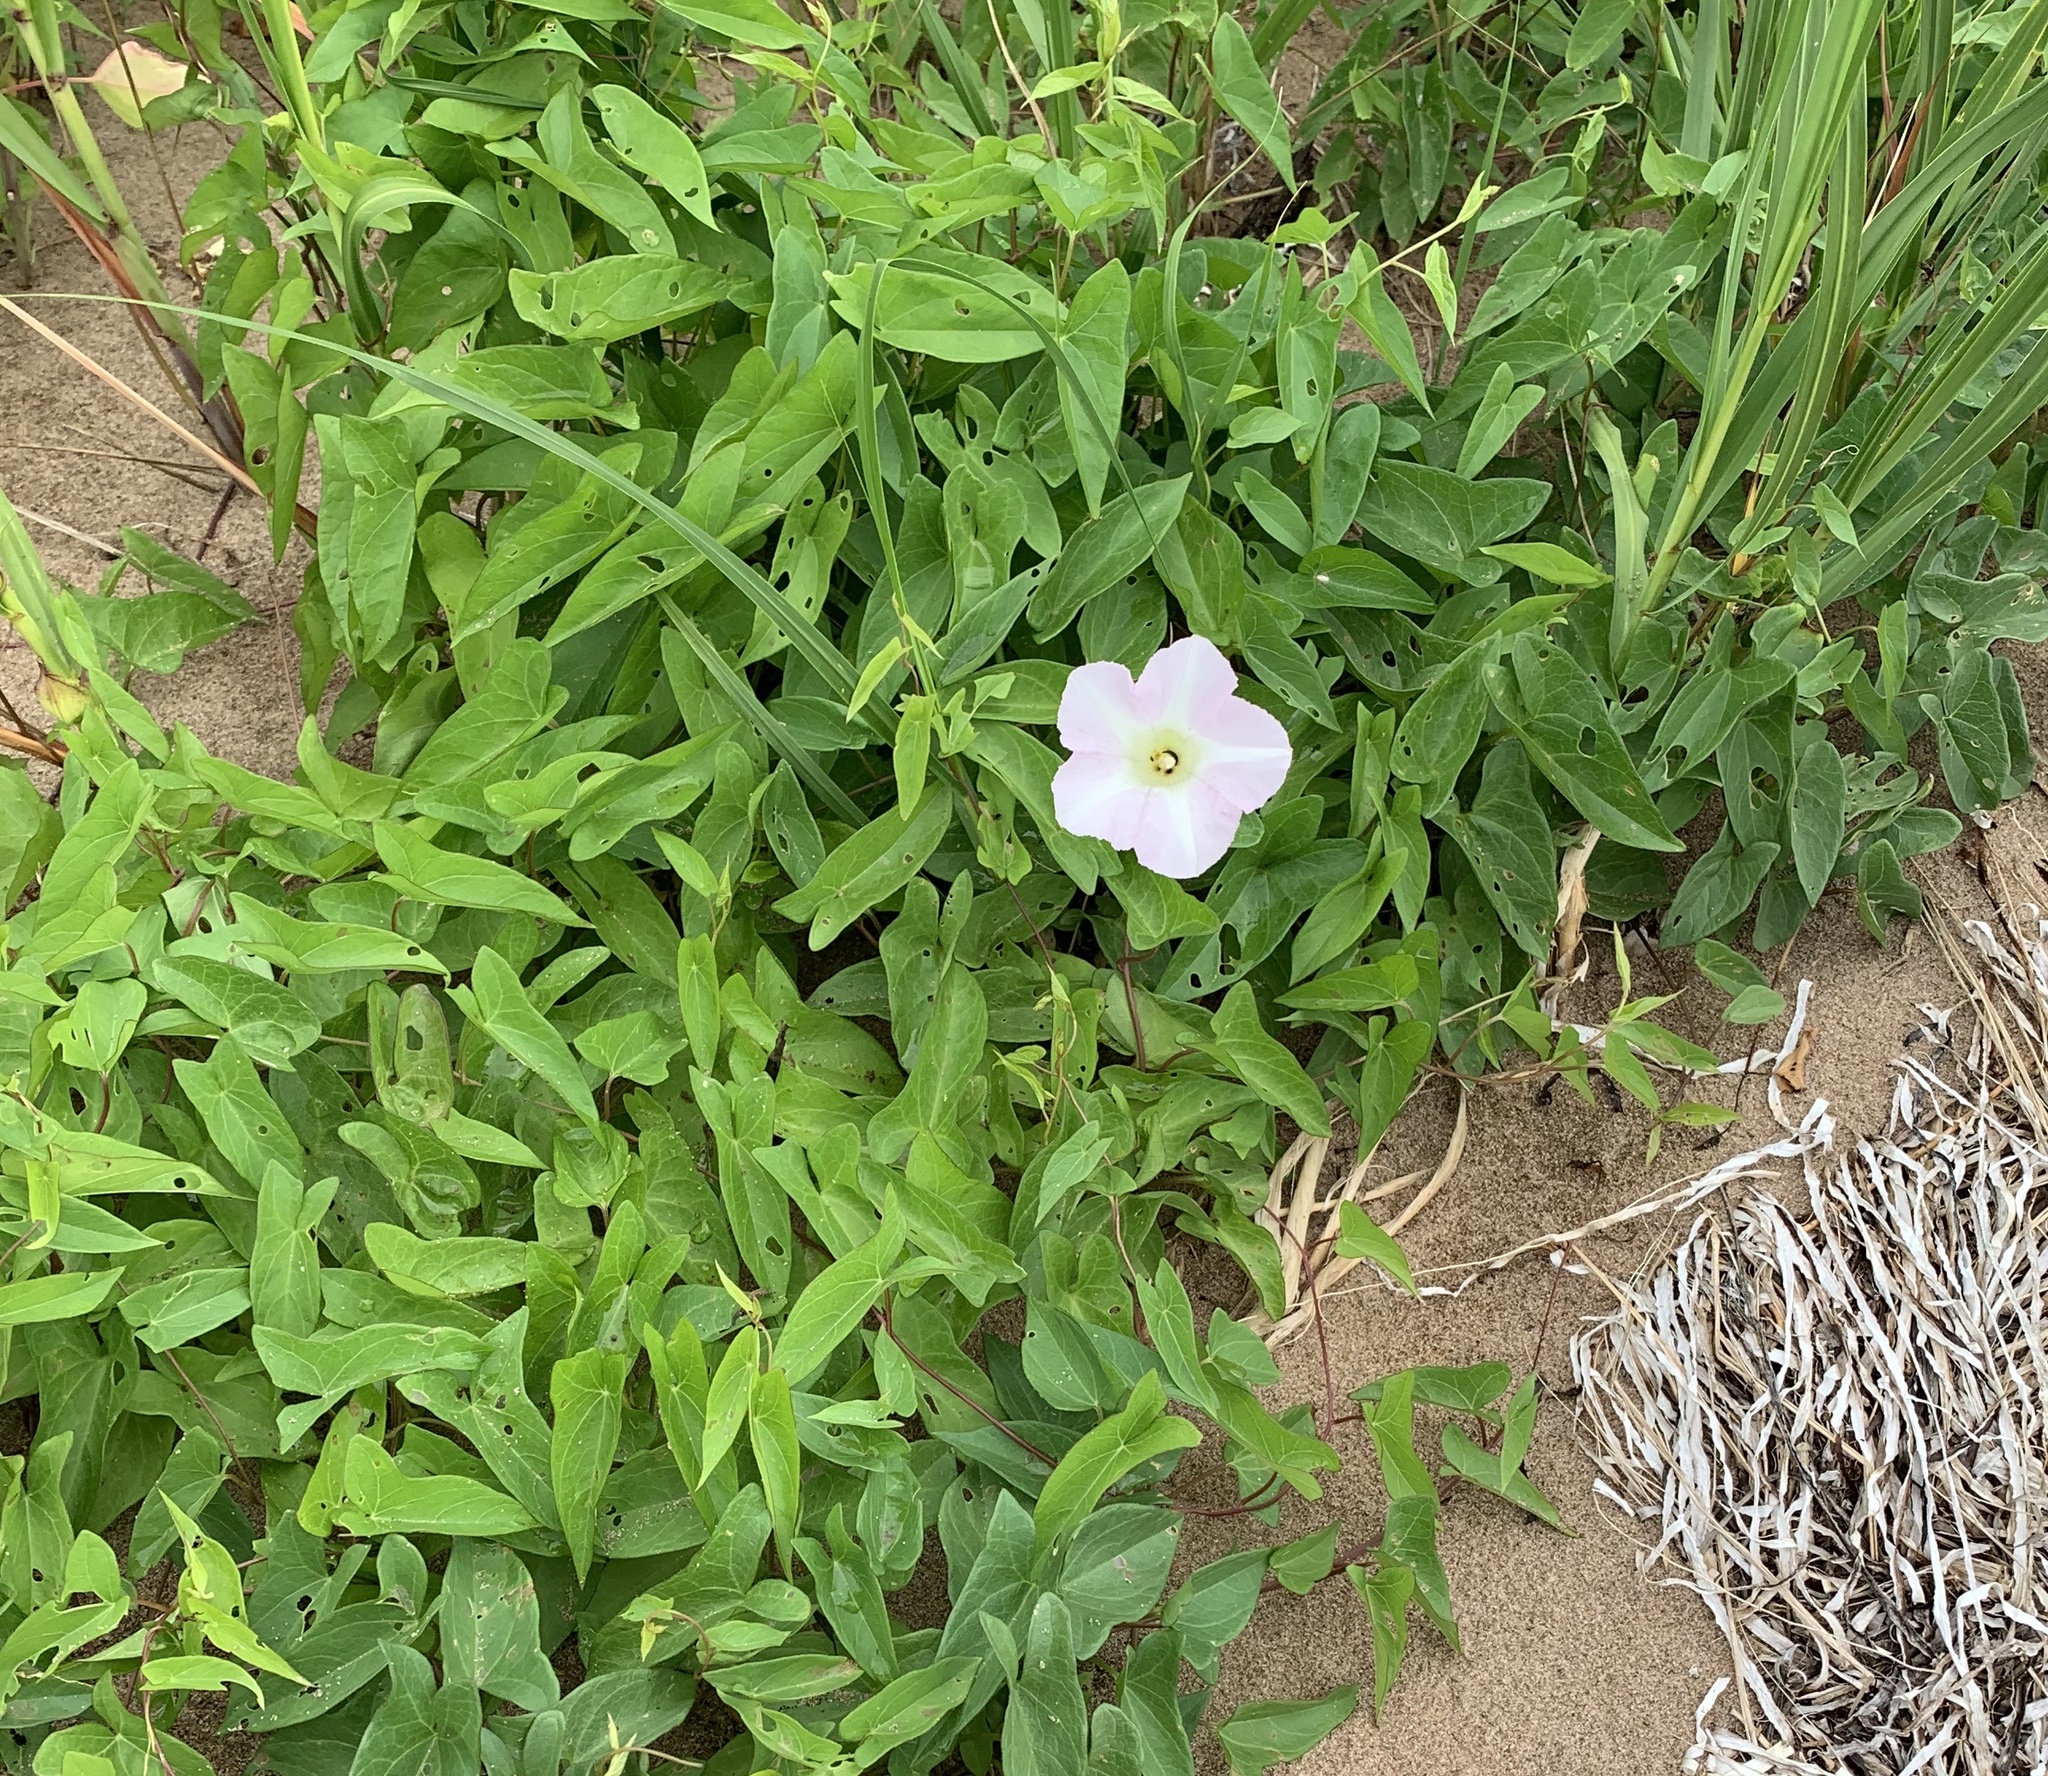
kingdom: Plantae
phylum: Tracheophyta
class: Magnoliopsida
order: Solanales
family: Convolvulaceae
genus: Calystegia
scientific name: Calystegia sepium
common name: Hedge bindweed
